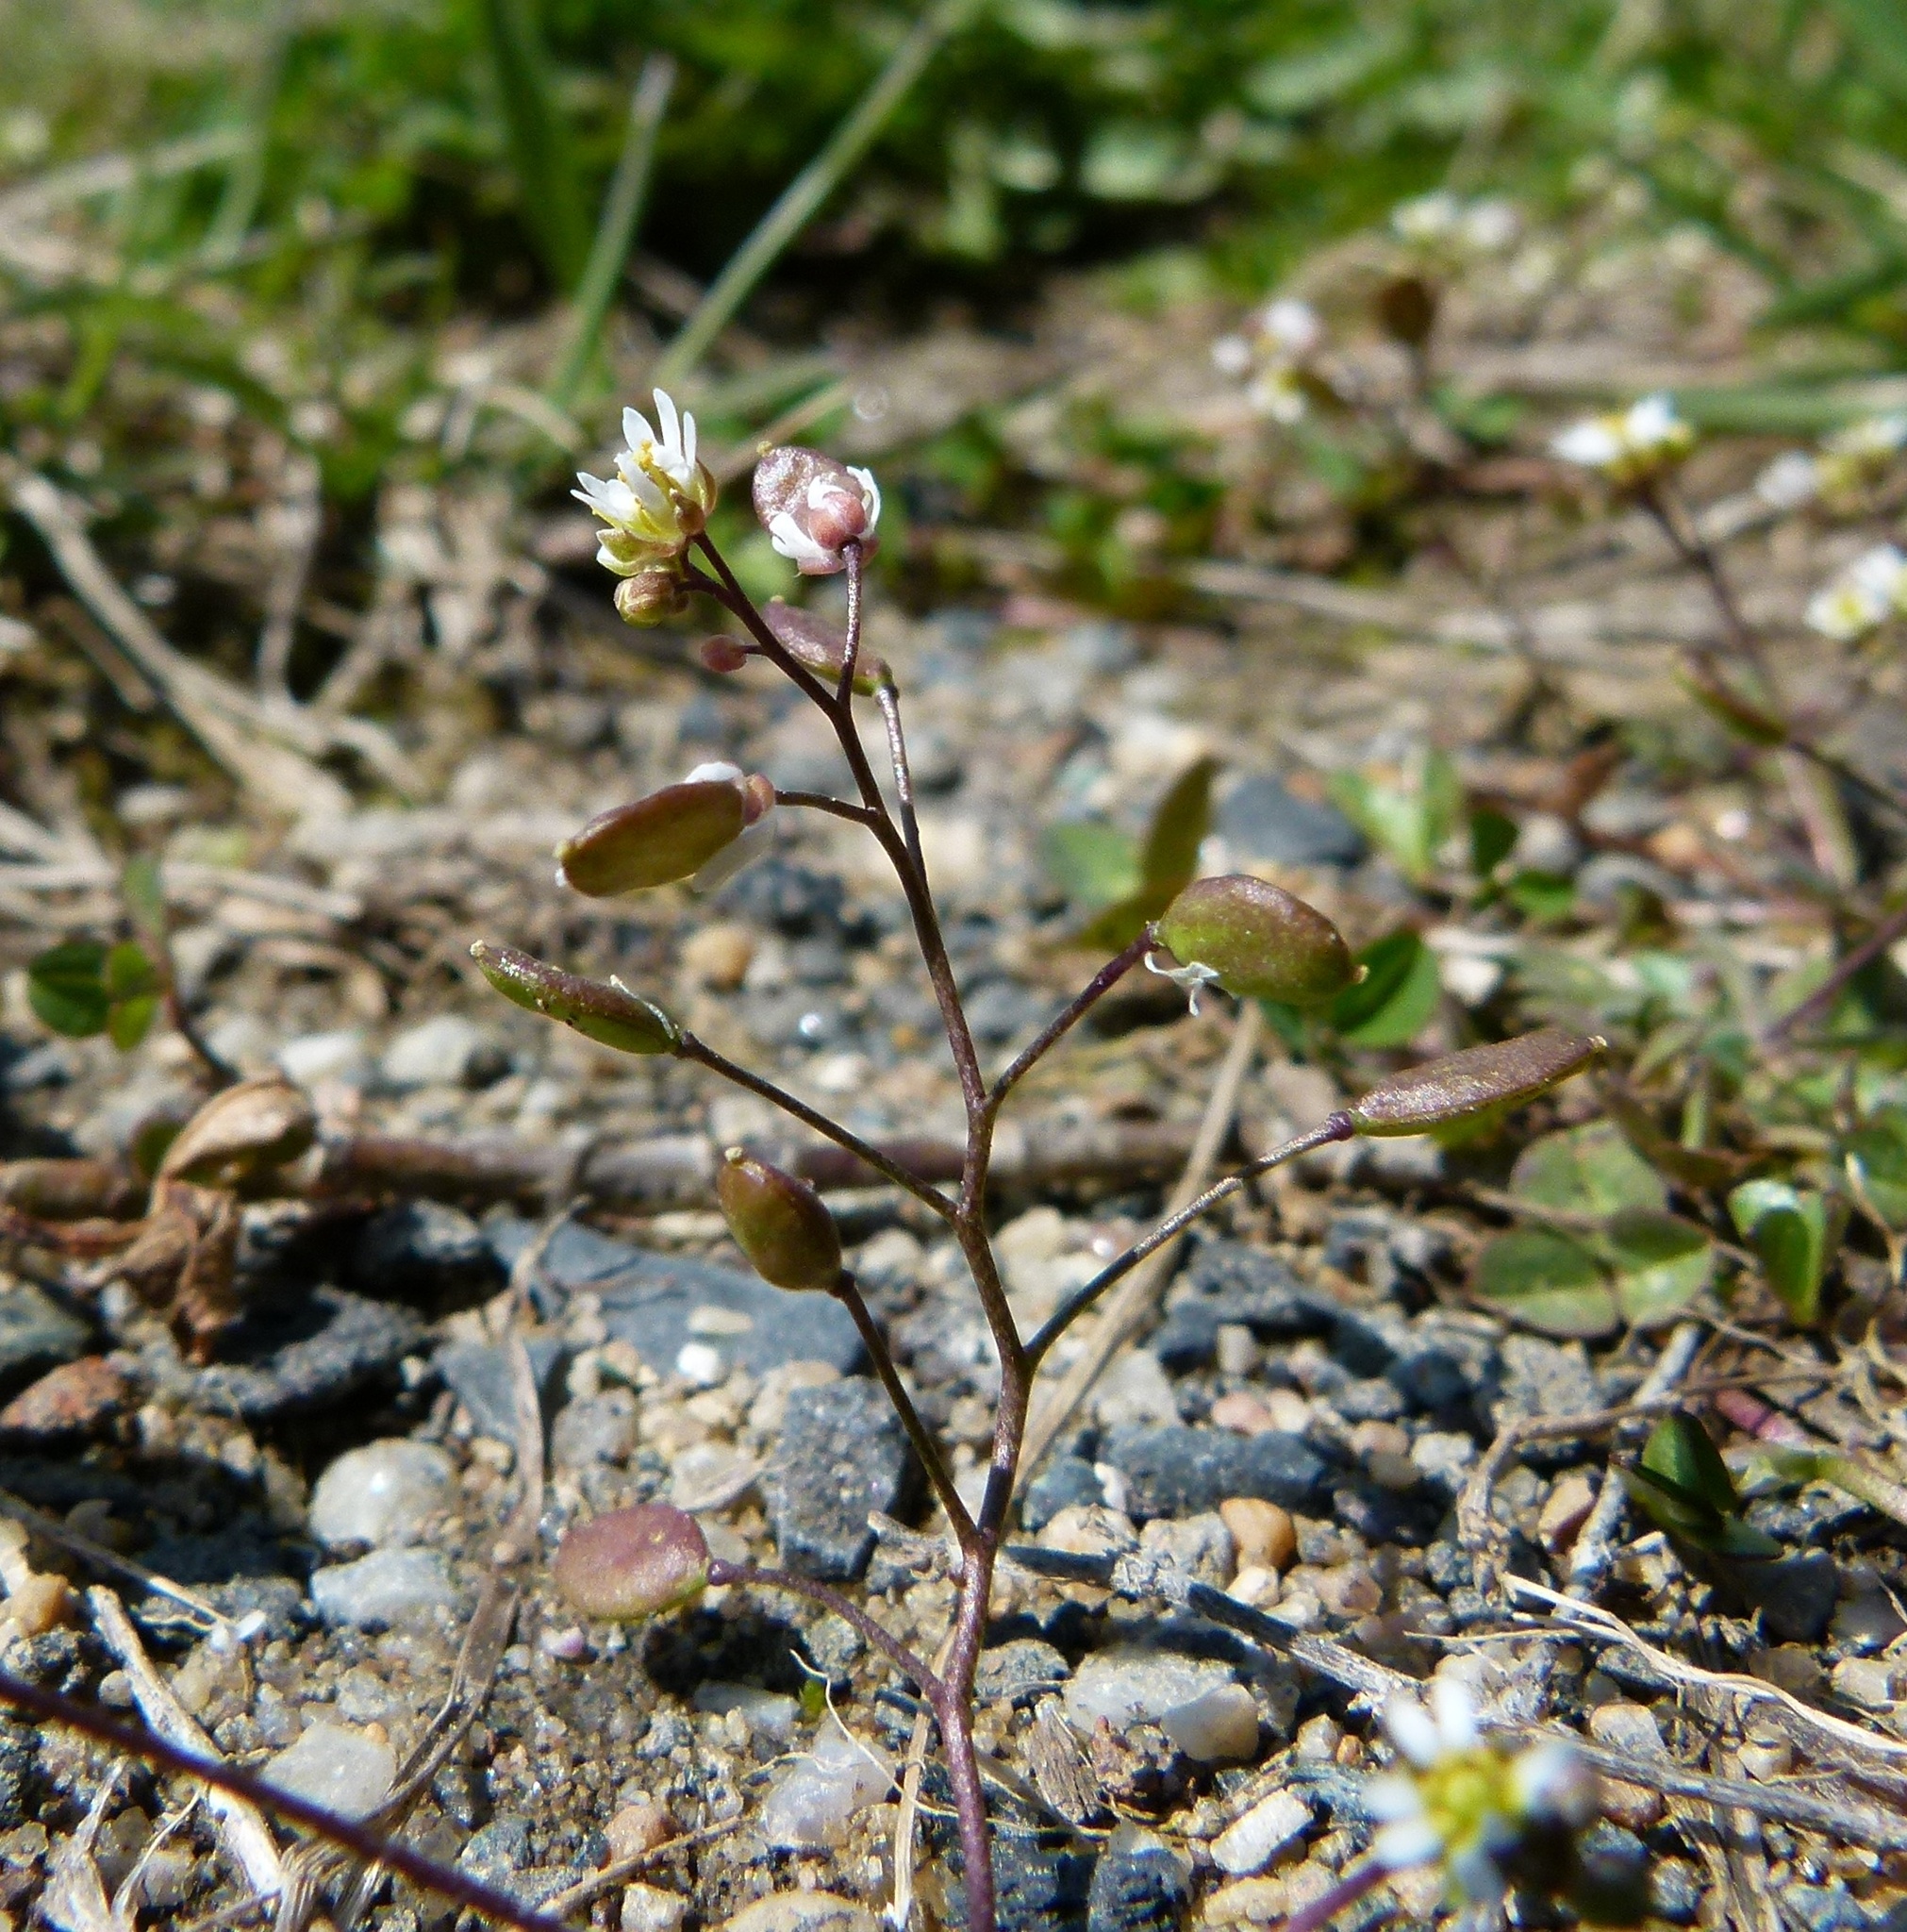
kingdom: Plantae
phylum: Tracheophyta
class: Magnoliopsida
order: Brassicales
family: Brassicaceae
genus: Draba
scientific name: Draba verna
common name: Spring draba
